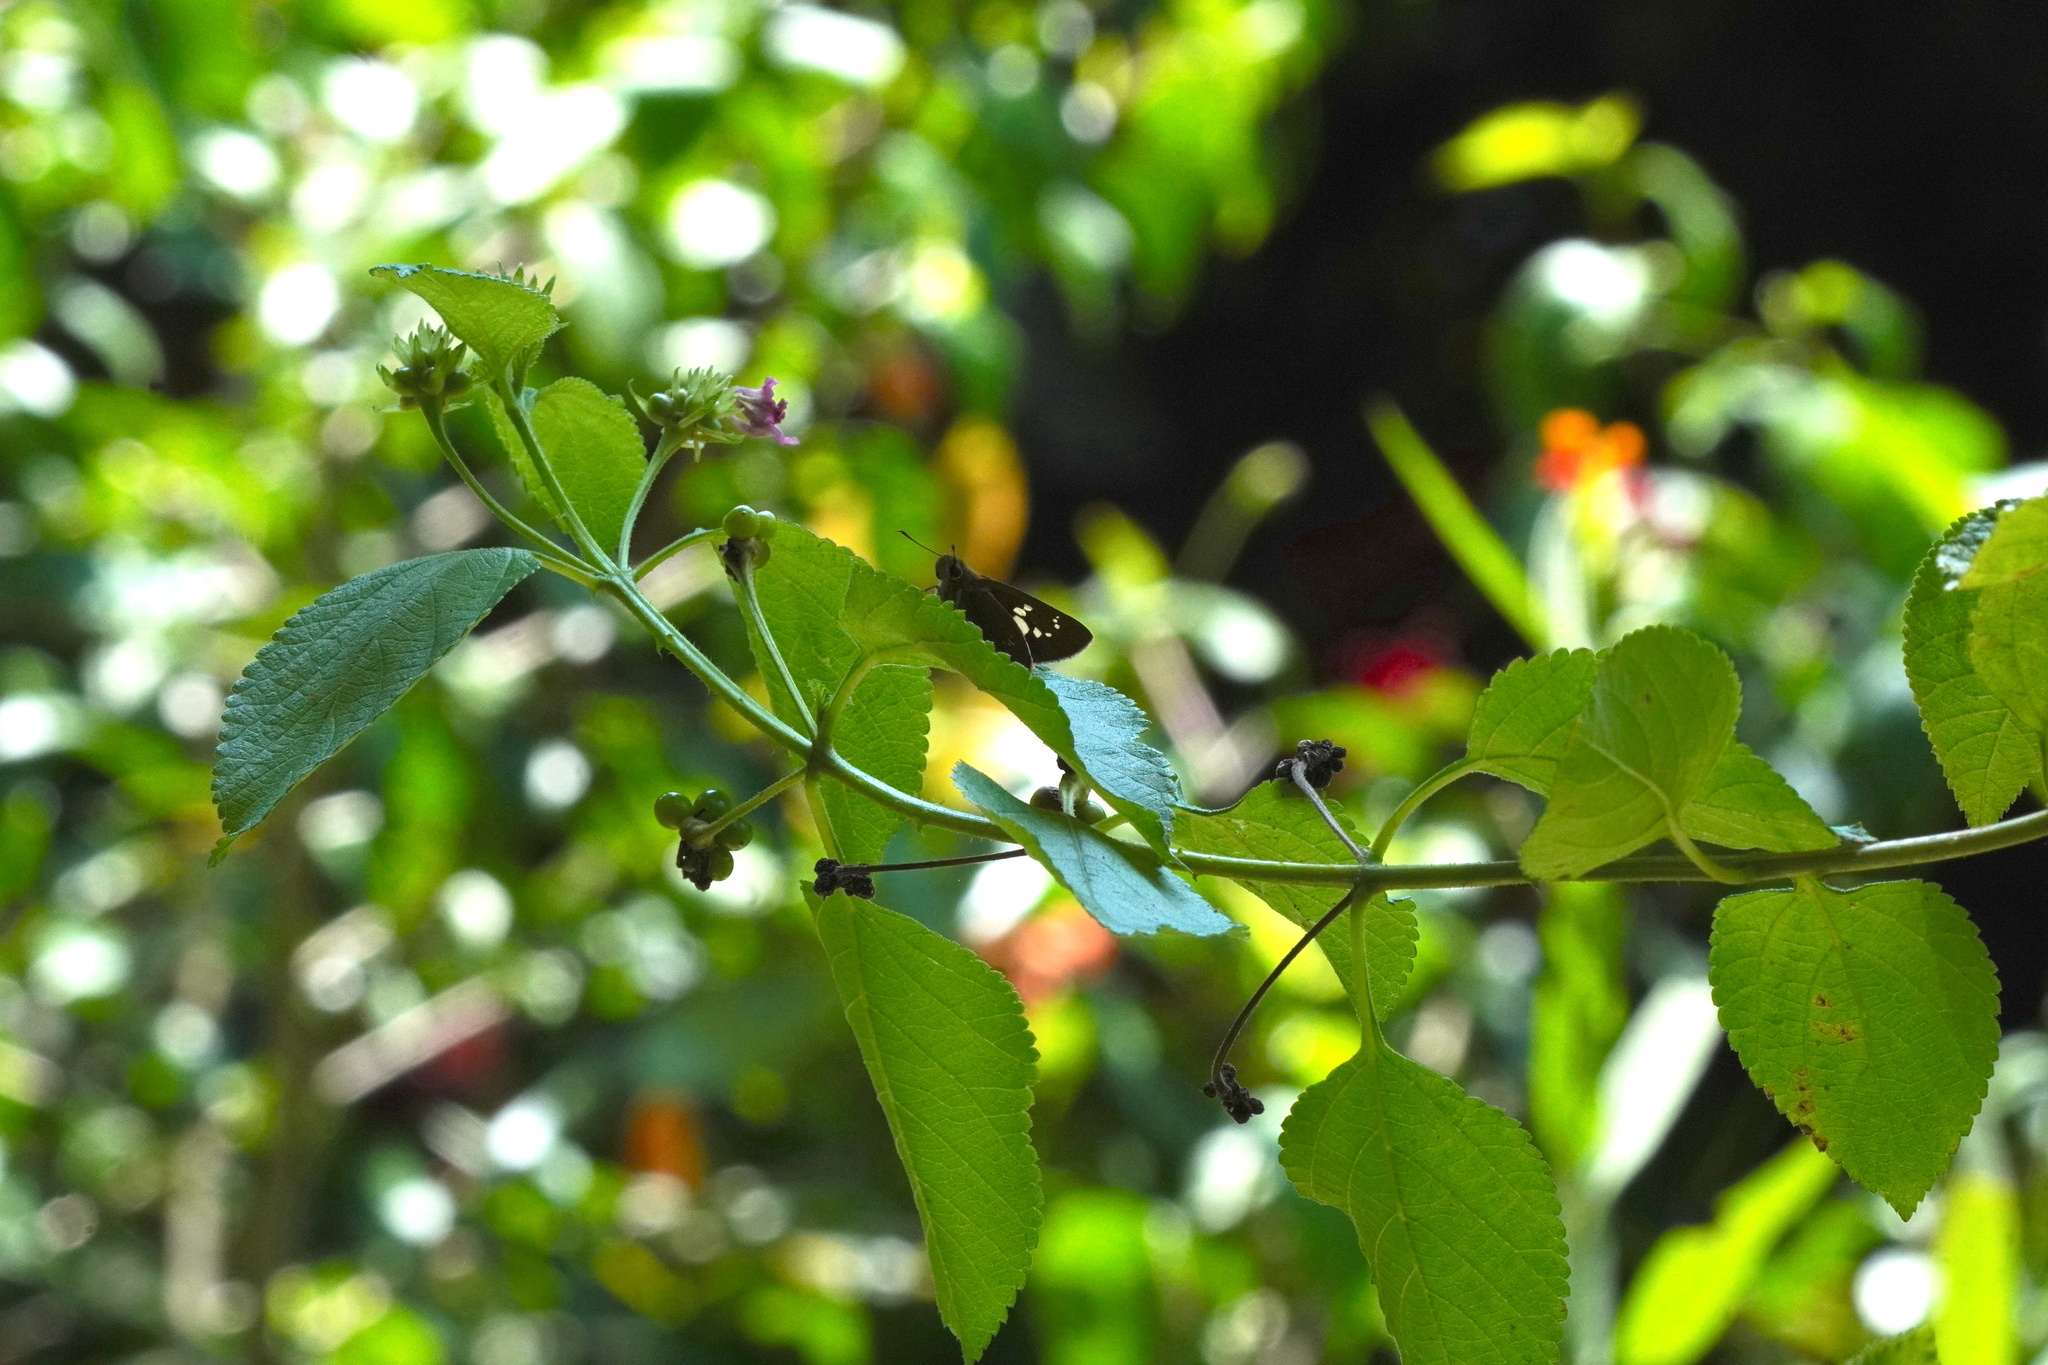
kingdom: Animalia
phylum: Arthropoda
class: Insecta
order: Lepidoptera
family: Hesperiidae
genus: Polytremis
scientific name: Polytremis lubricans
